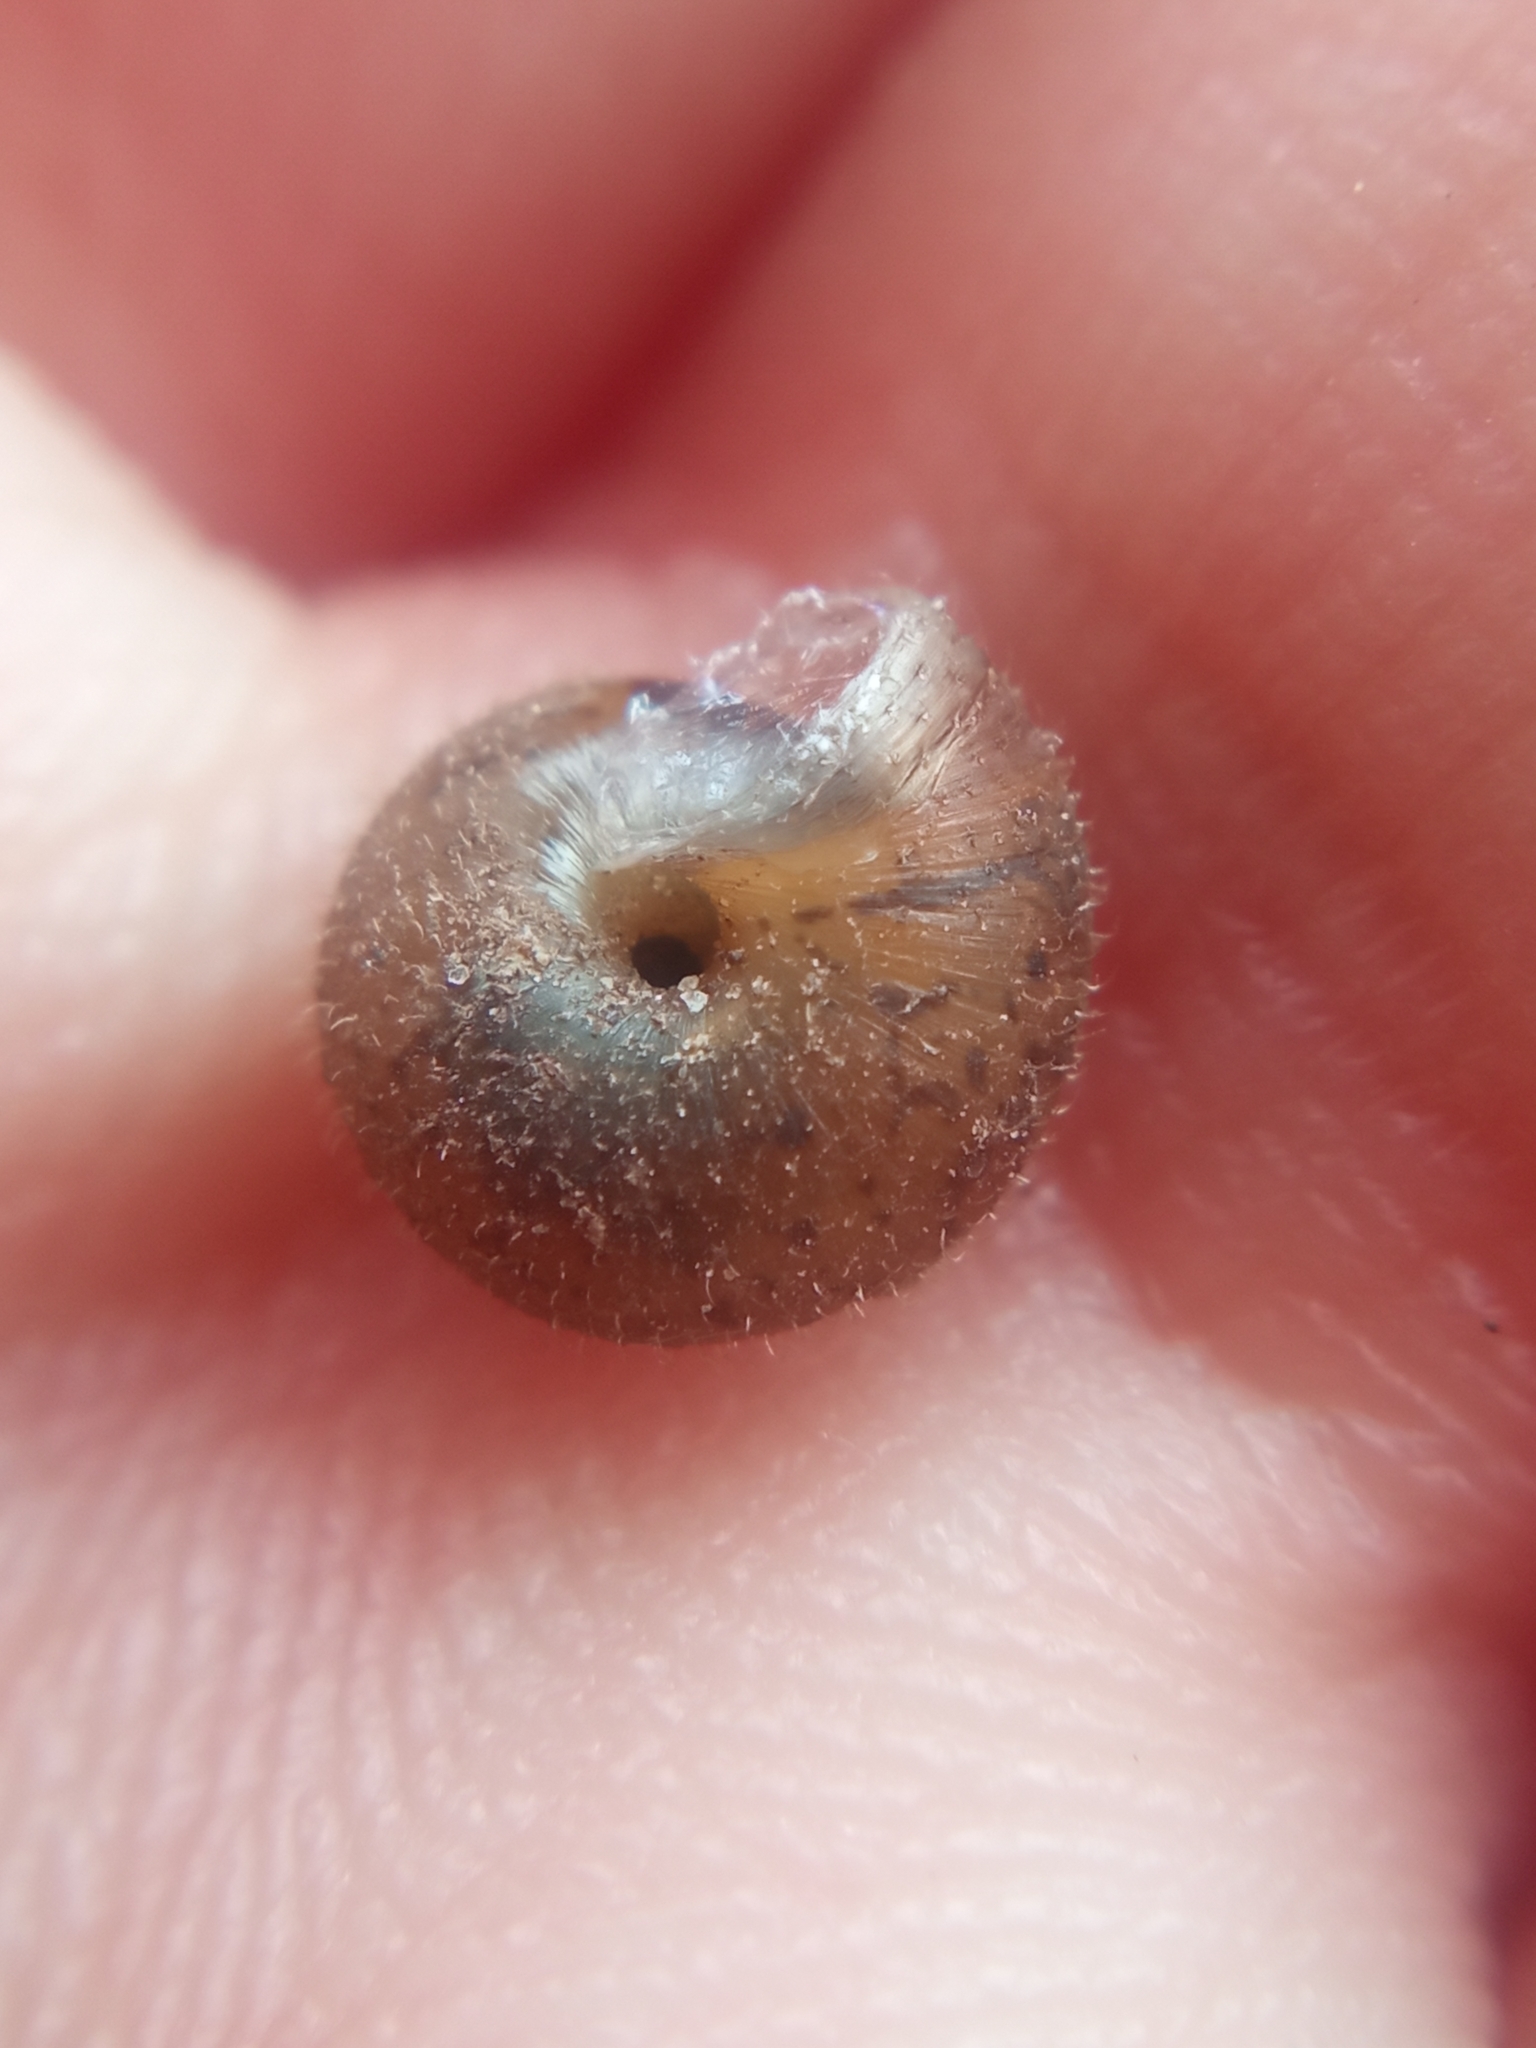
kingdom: Animalia
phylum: Mollusca
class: Gastropoda
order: Stylommatophora
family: Hygromiidae
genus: Trochulus
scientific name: Trochulus hispidus
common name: Hairy snail
